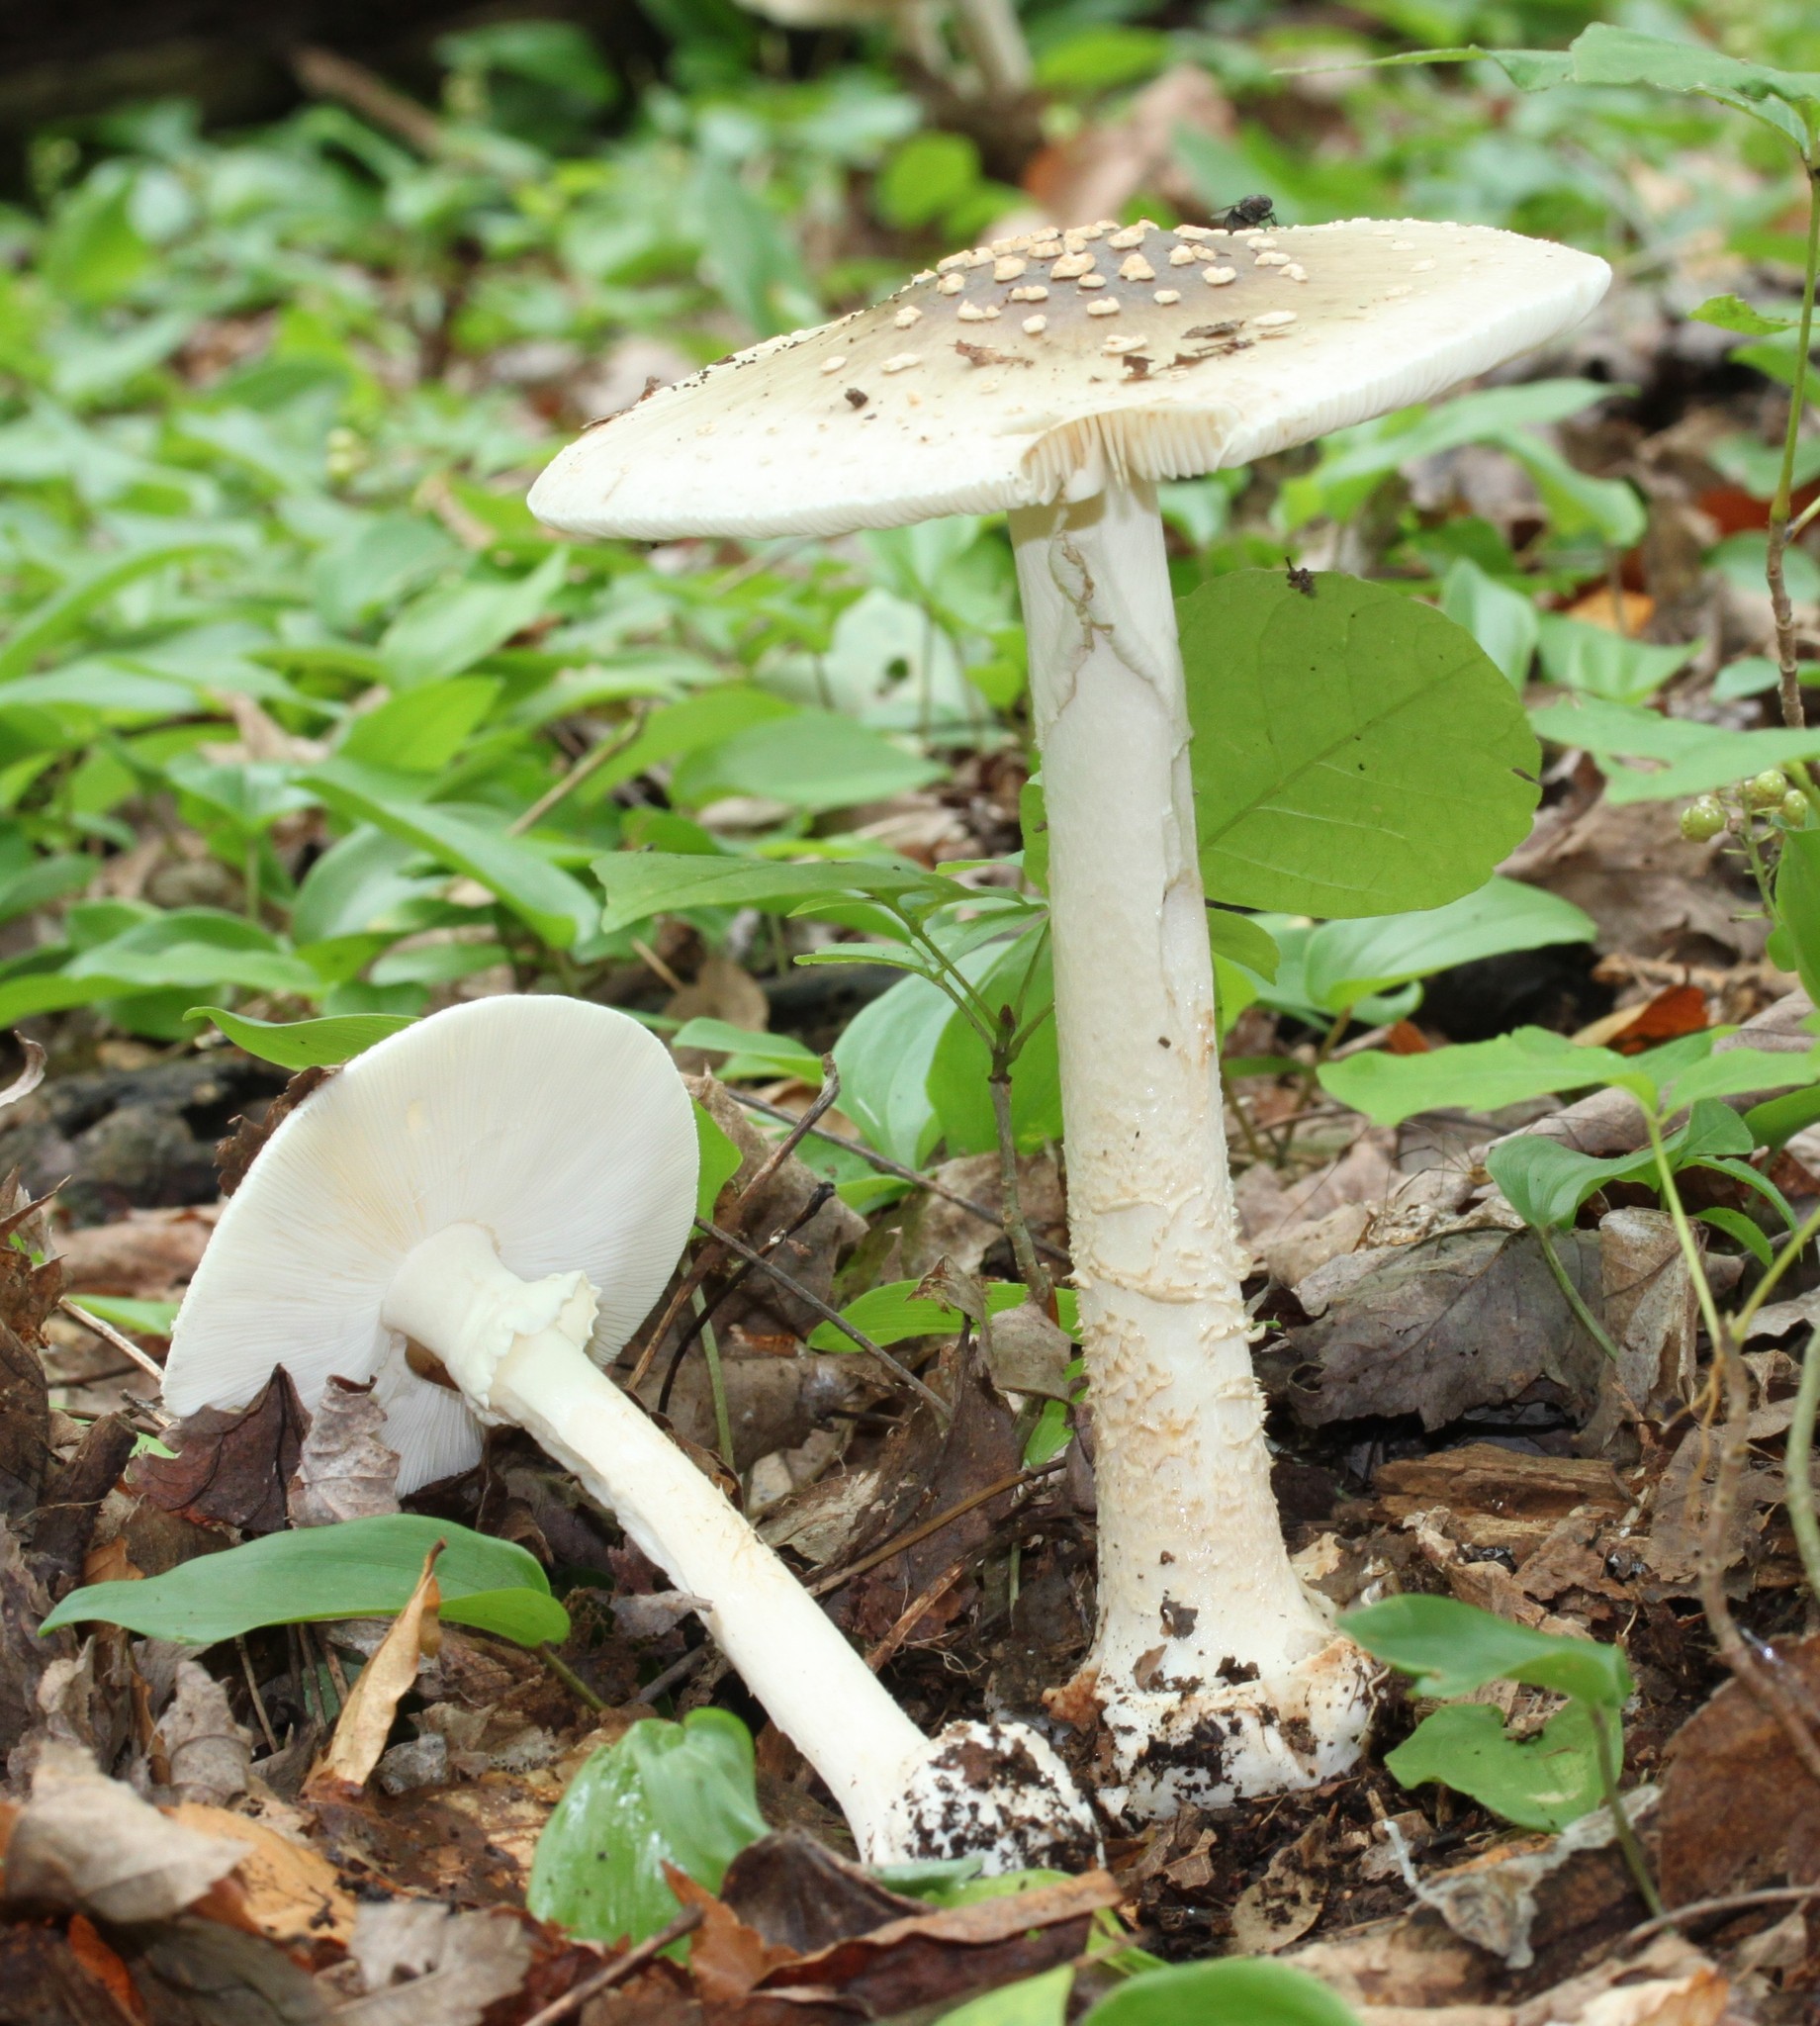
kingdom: Fungi
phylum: Basidiomycota
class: Agaricomycetes
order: Agaricales
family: Amanitaceae
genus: Amanita
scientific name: Amanita brunnescens
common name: Brown american star-footed amanita
